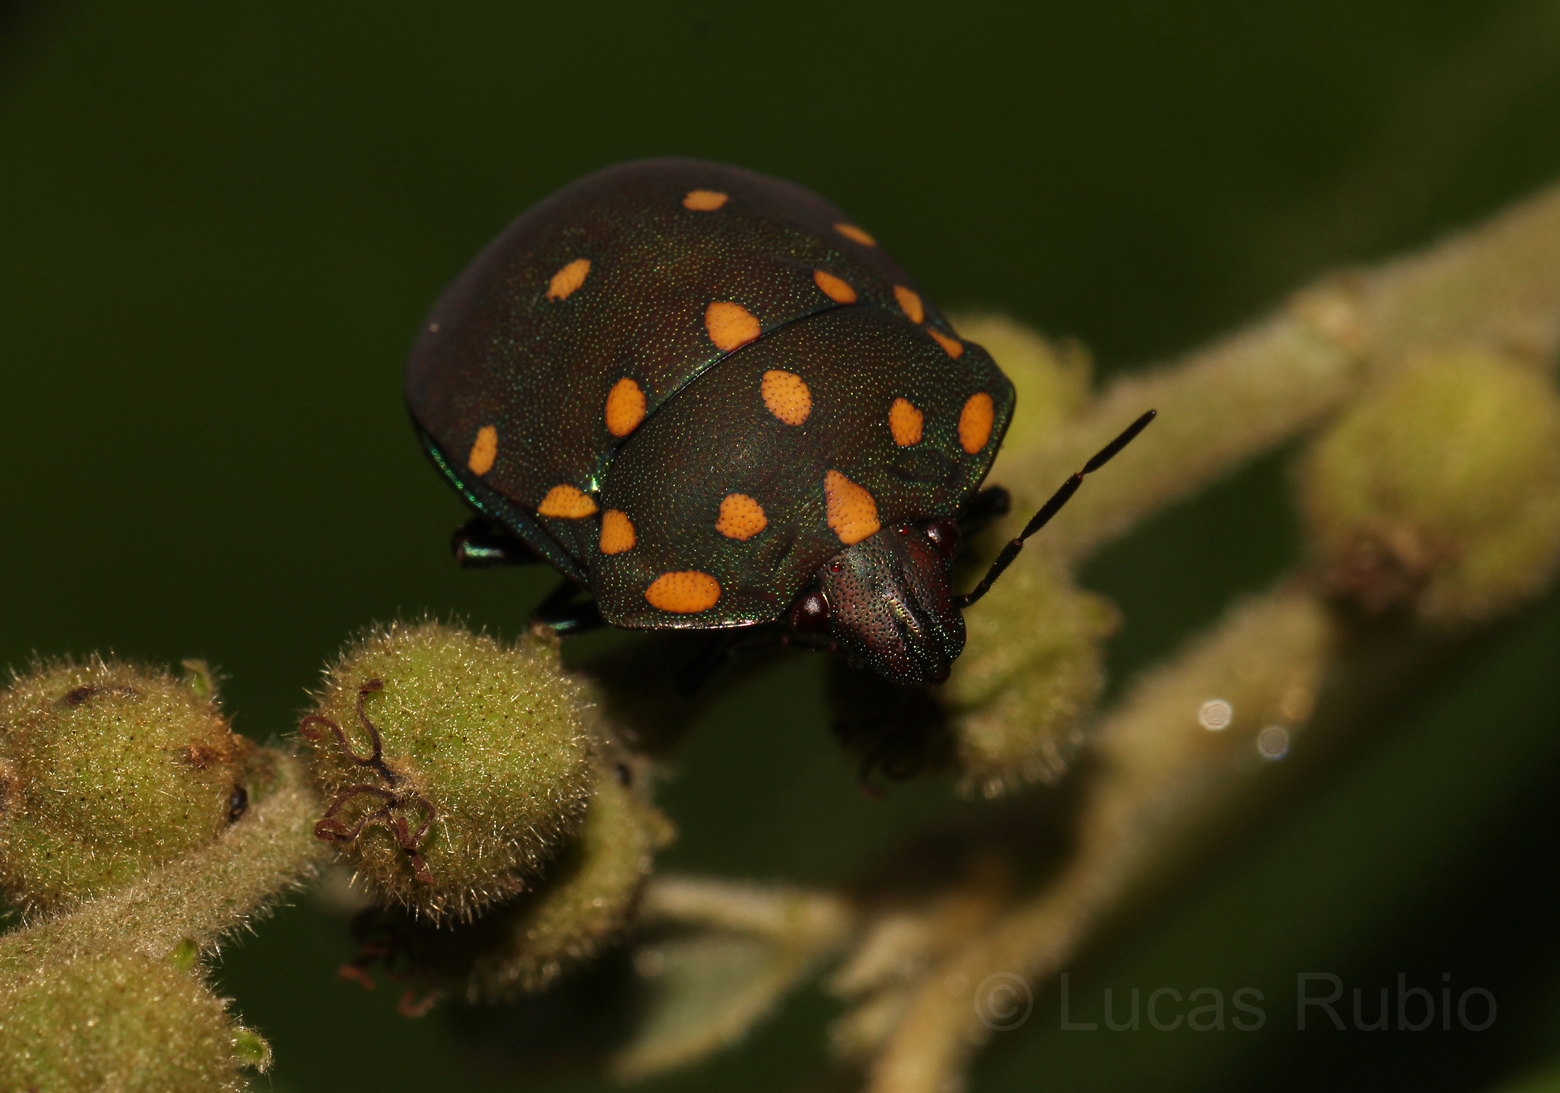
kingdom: Animalia
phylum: Arthropoda
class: Insecta
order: Hemiptera
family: Scutelleridae
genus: Pachycoris
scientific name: Pachycoris torridus
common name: Torrid jewel bug
